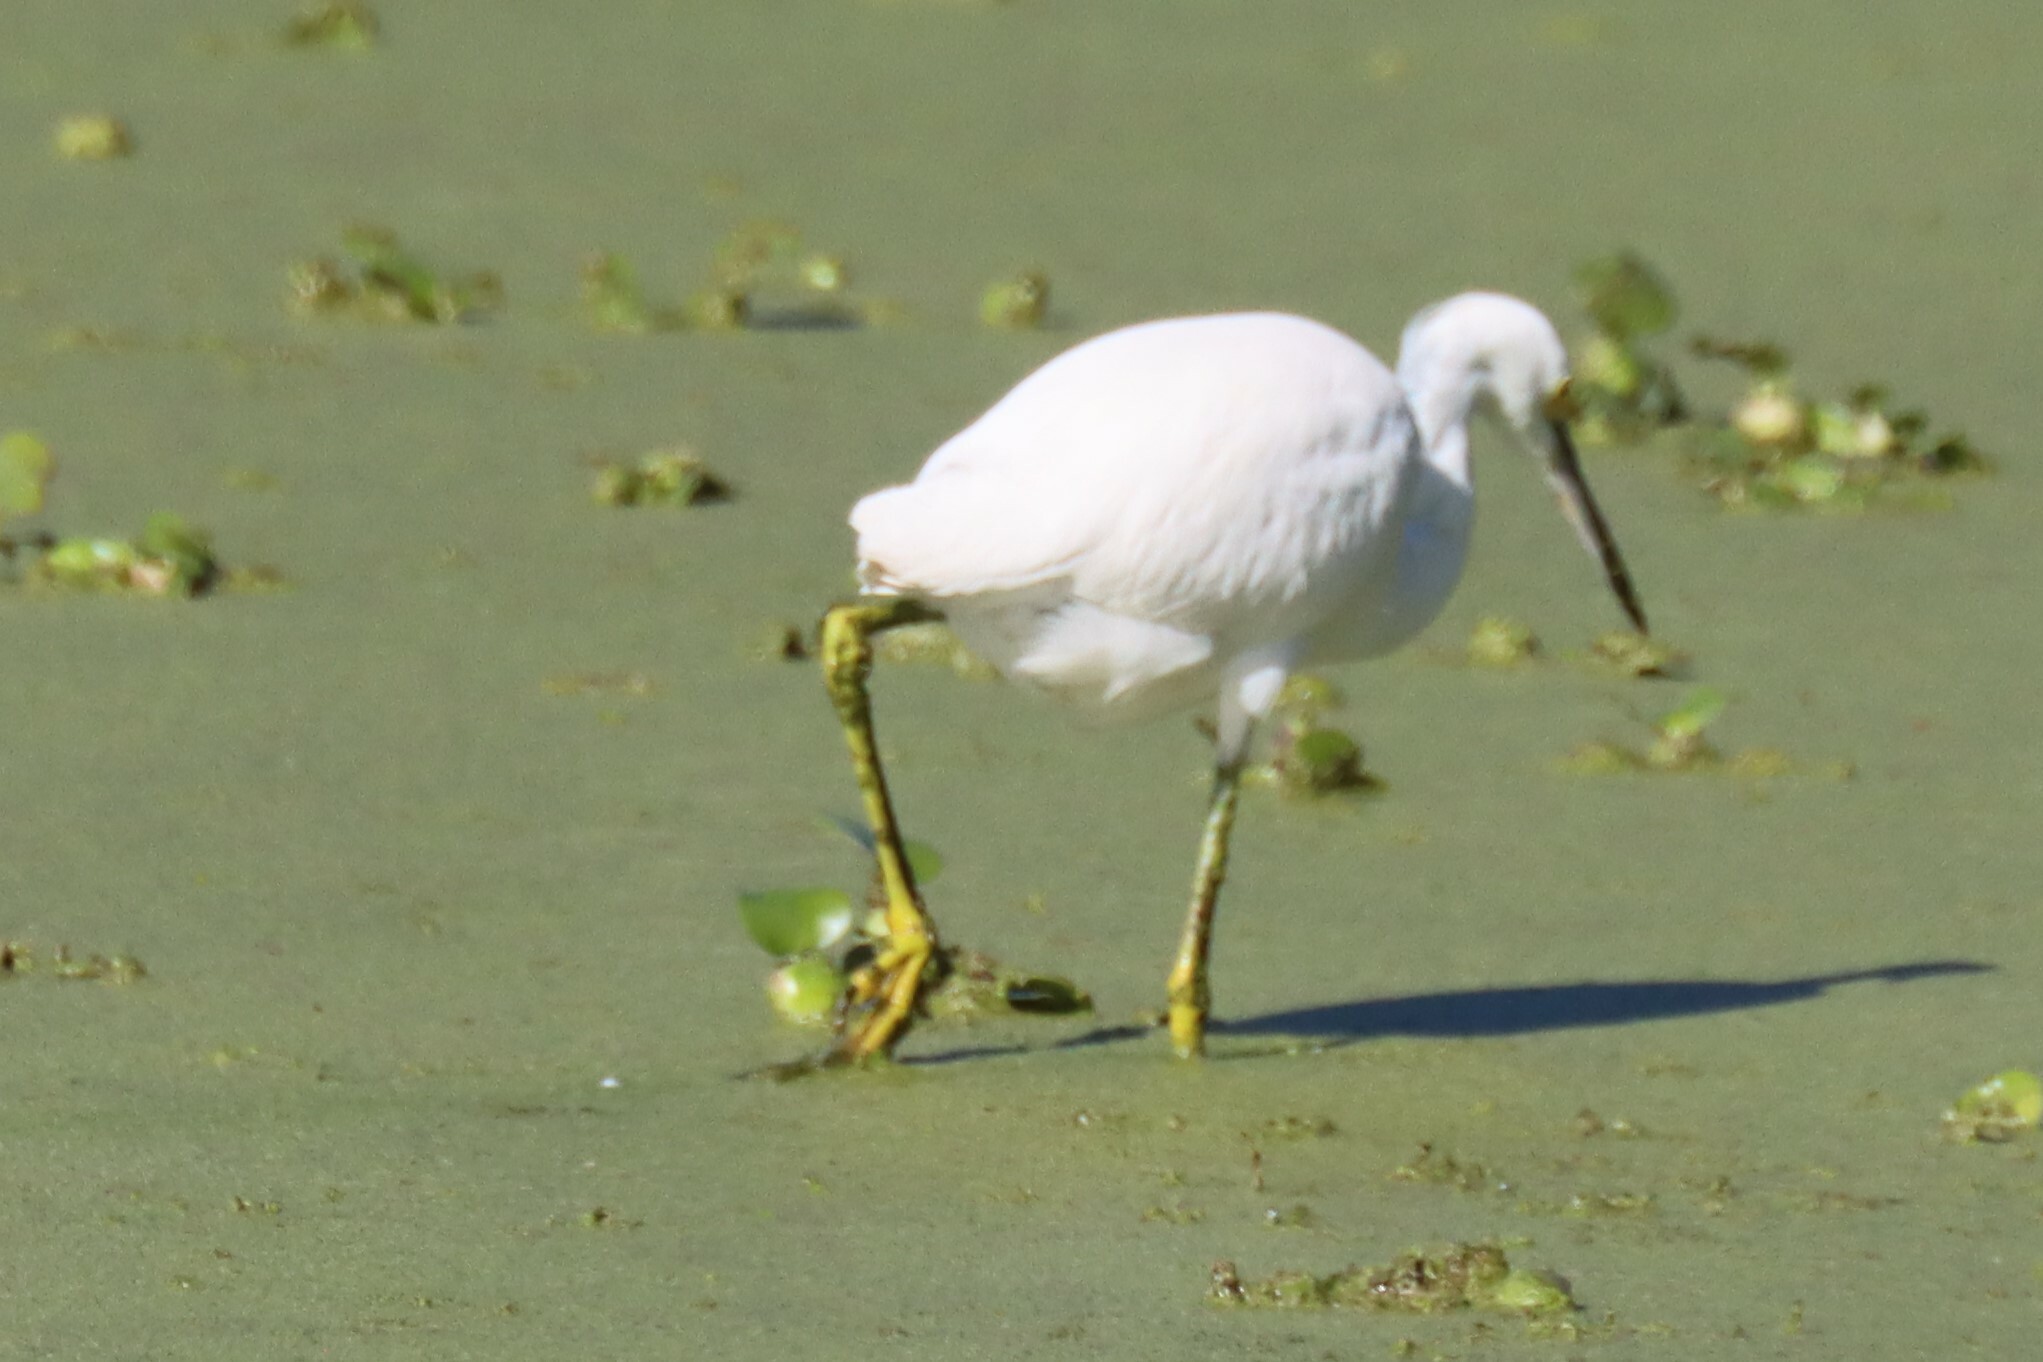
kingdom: Animalia
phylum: Chordata
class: Aves
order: Pelecaniformes
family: Ardeidae
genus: Egretta
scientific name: Egretta thula
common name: Snowy egret
